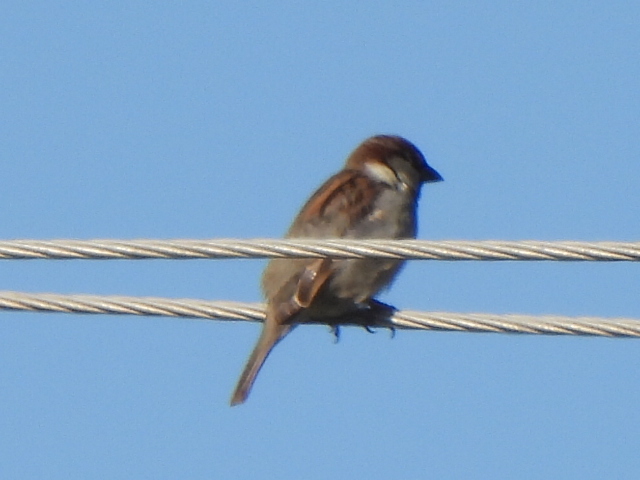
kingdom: Animalia
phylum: Chordata
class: Aves
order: Passeriformes
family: Passeridae
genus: Passer
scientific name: Passer domesticus
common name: House sparrow
